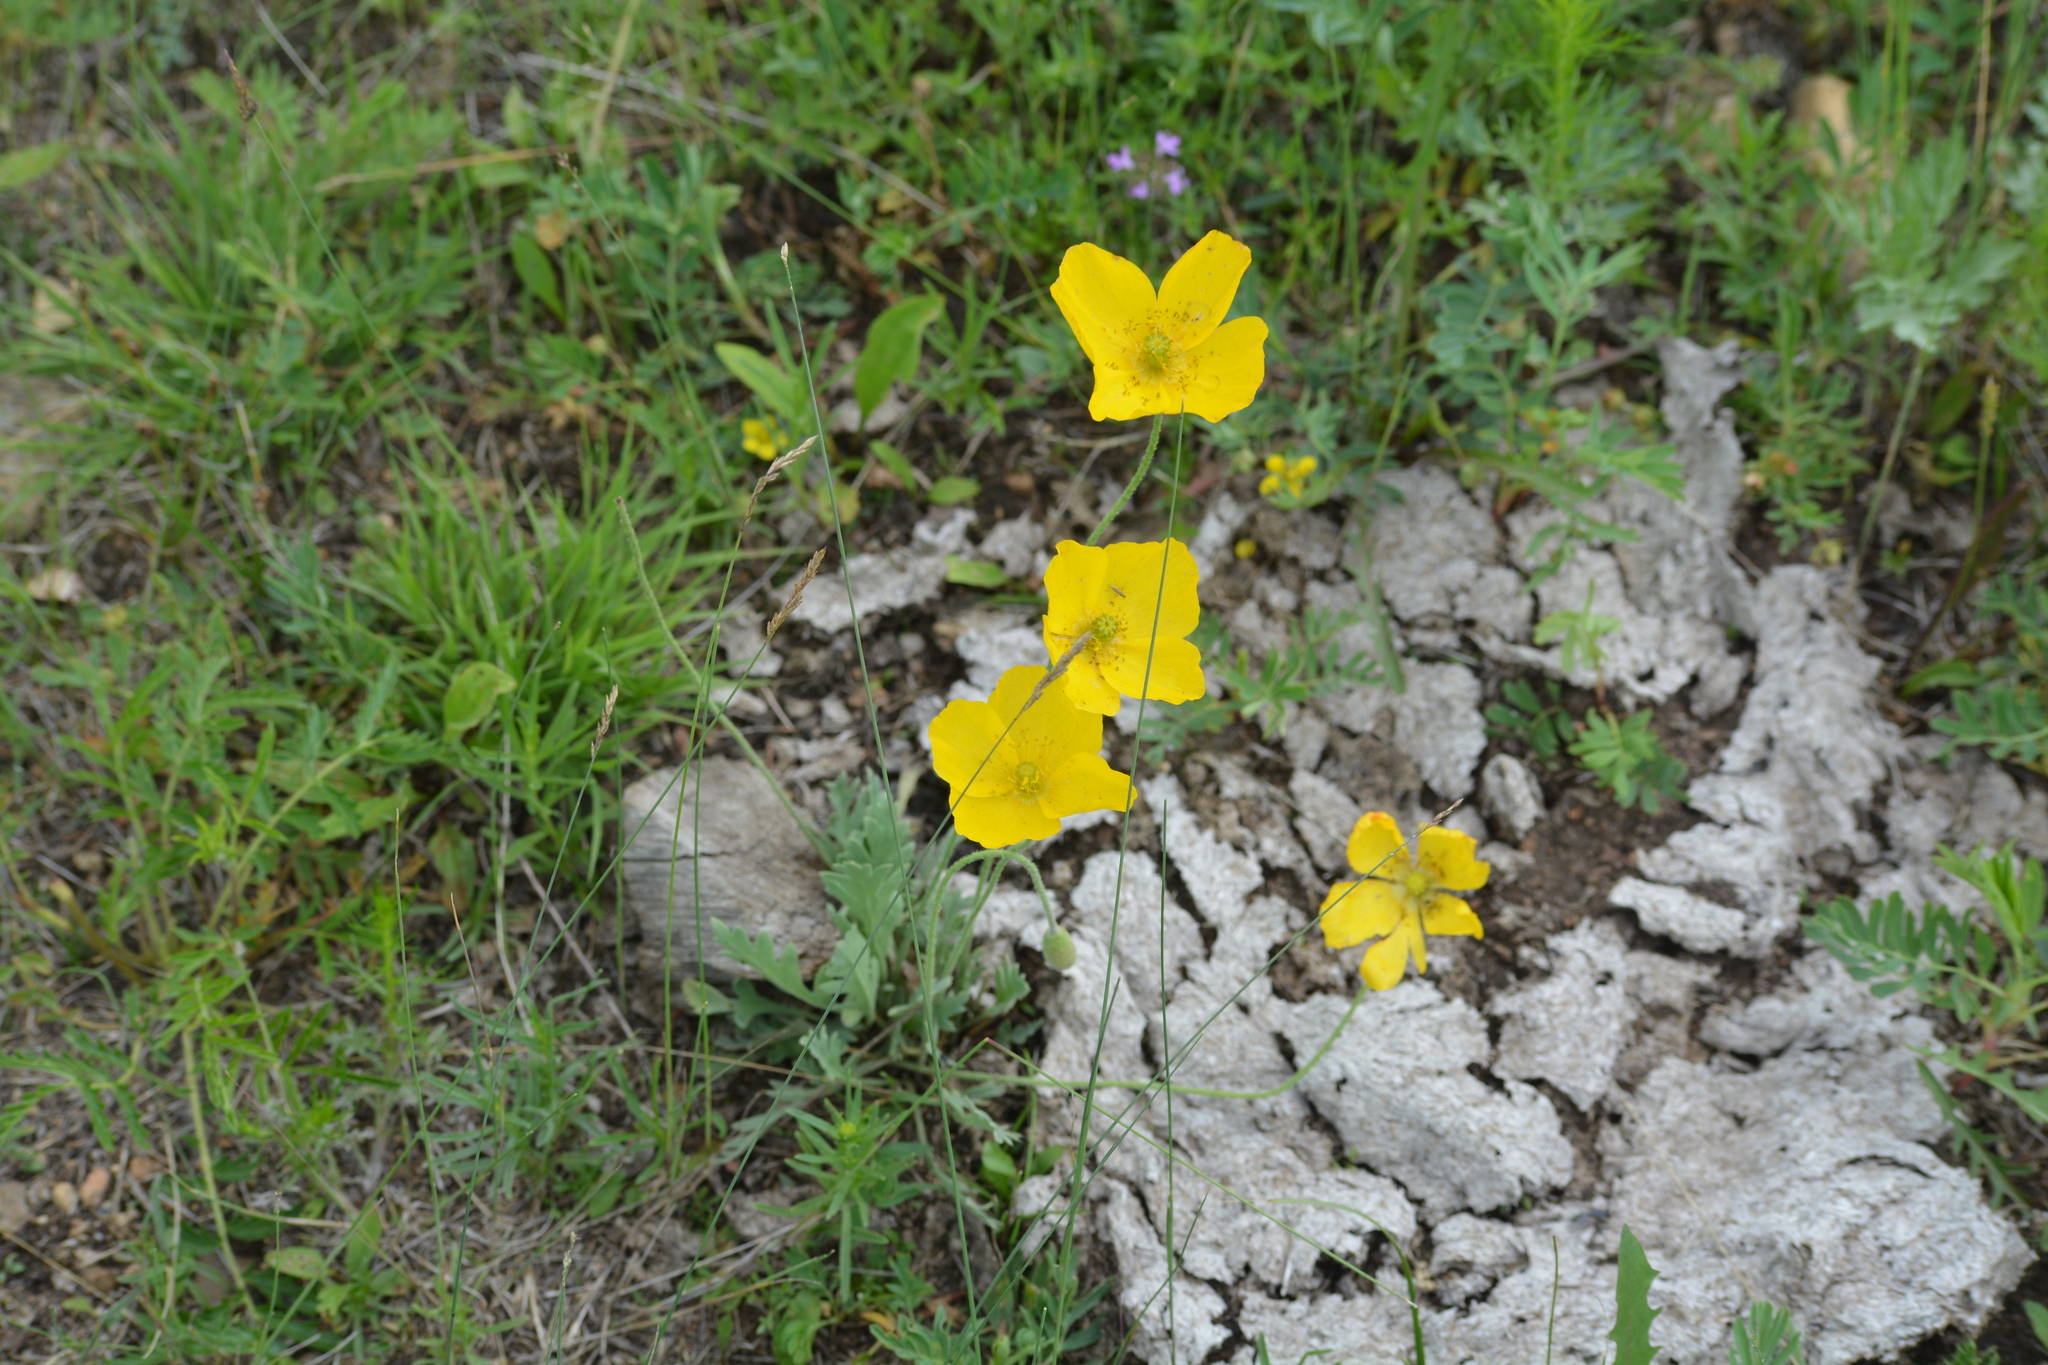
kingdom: Plantae
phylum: Tracheophyta
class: Magnoliopsida
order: Ranunculales
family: Papaveraceae
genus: Papaver
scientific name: Papaver nudicaule
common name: Arctic poppy
